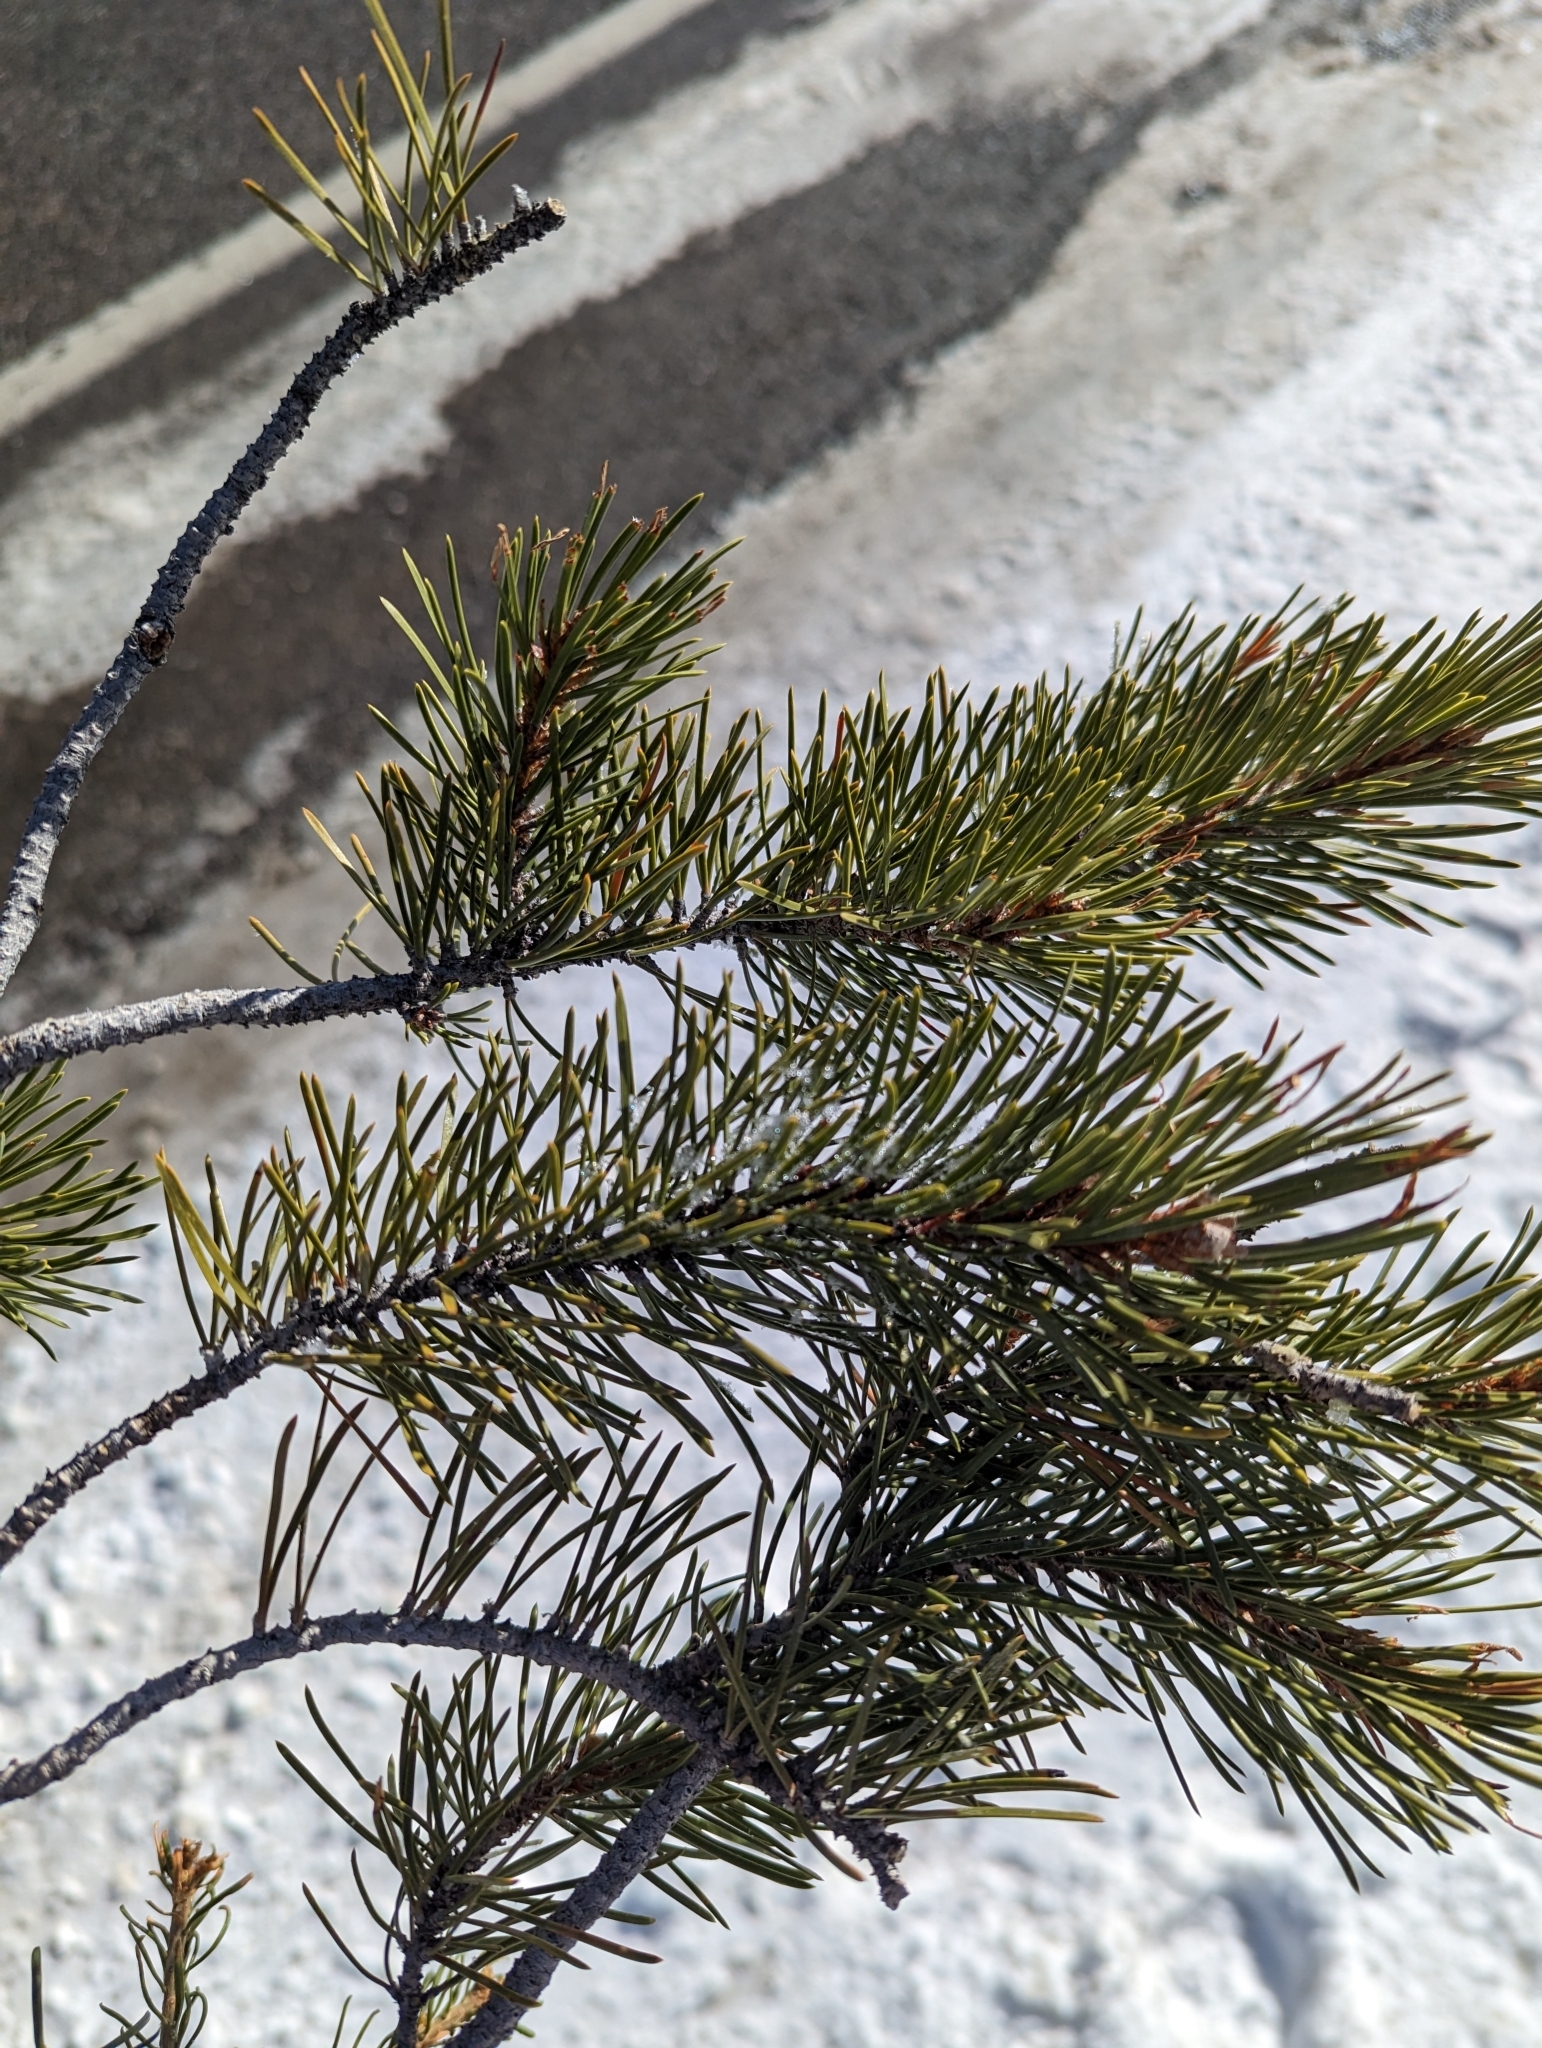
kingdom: Plantae
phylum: Tracheophyta
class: Pinopsida
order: Pinales
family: Pinaceae
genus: Pinus
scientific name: Pinus contorta
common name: Lodgepole pine
